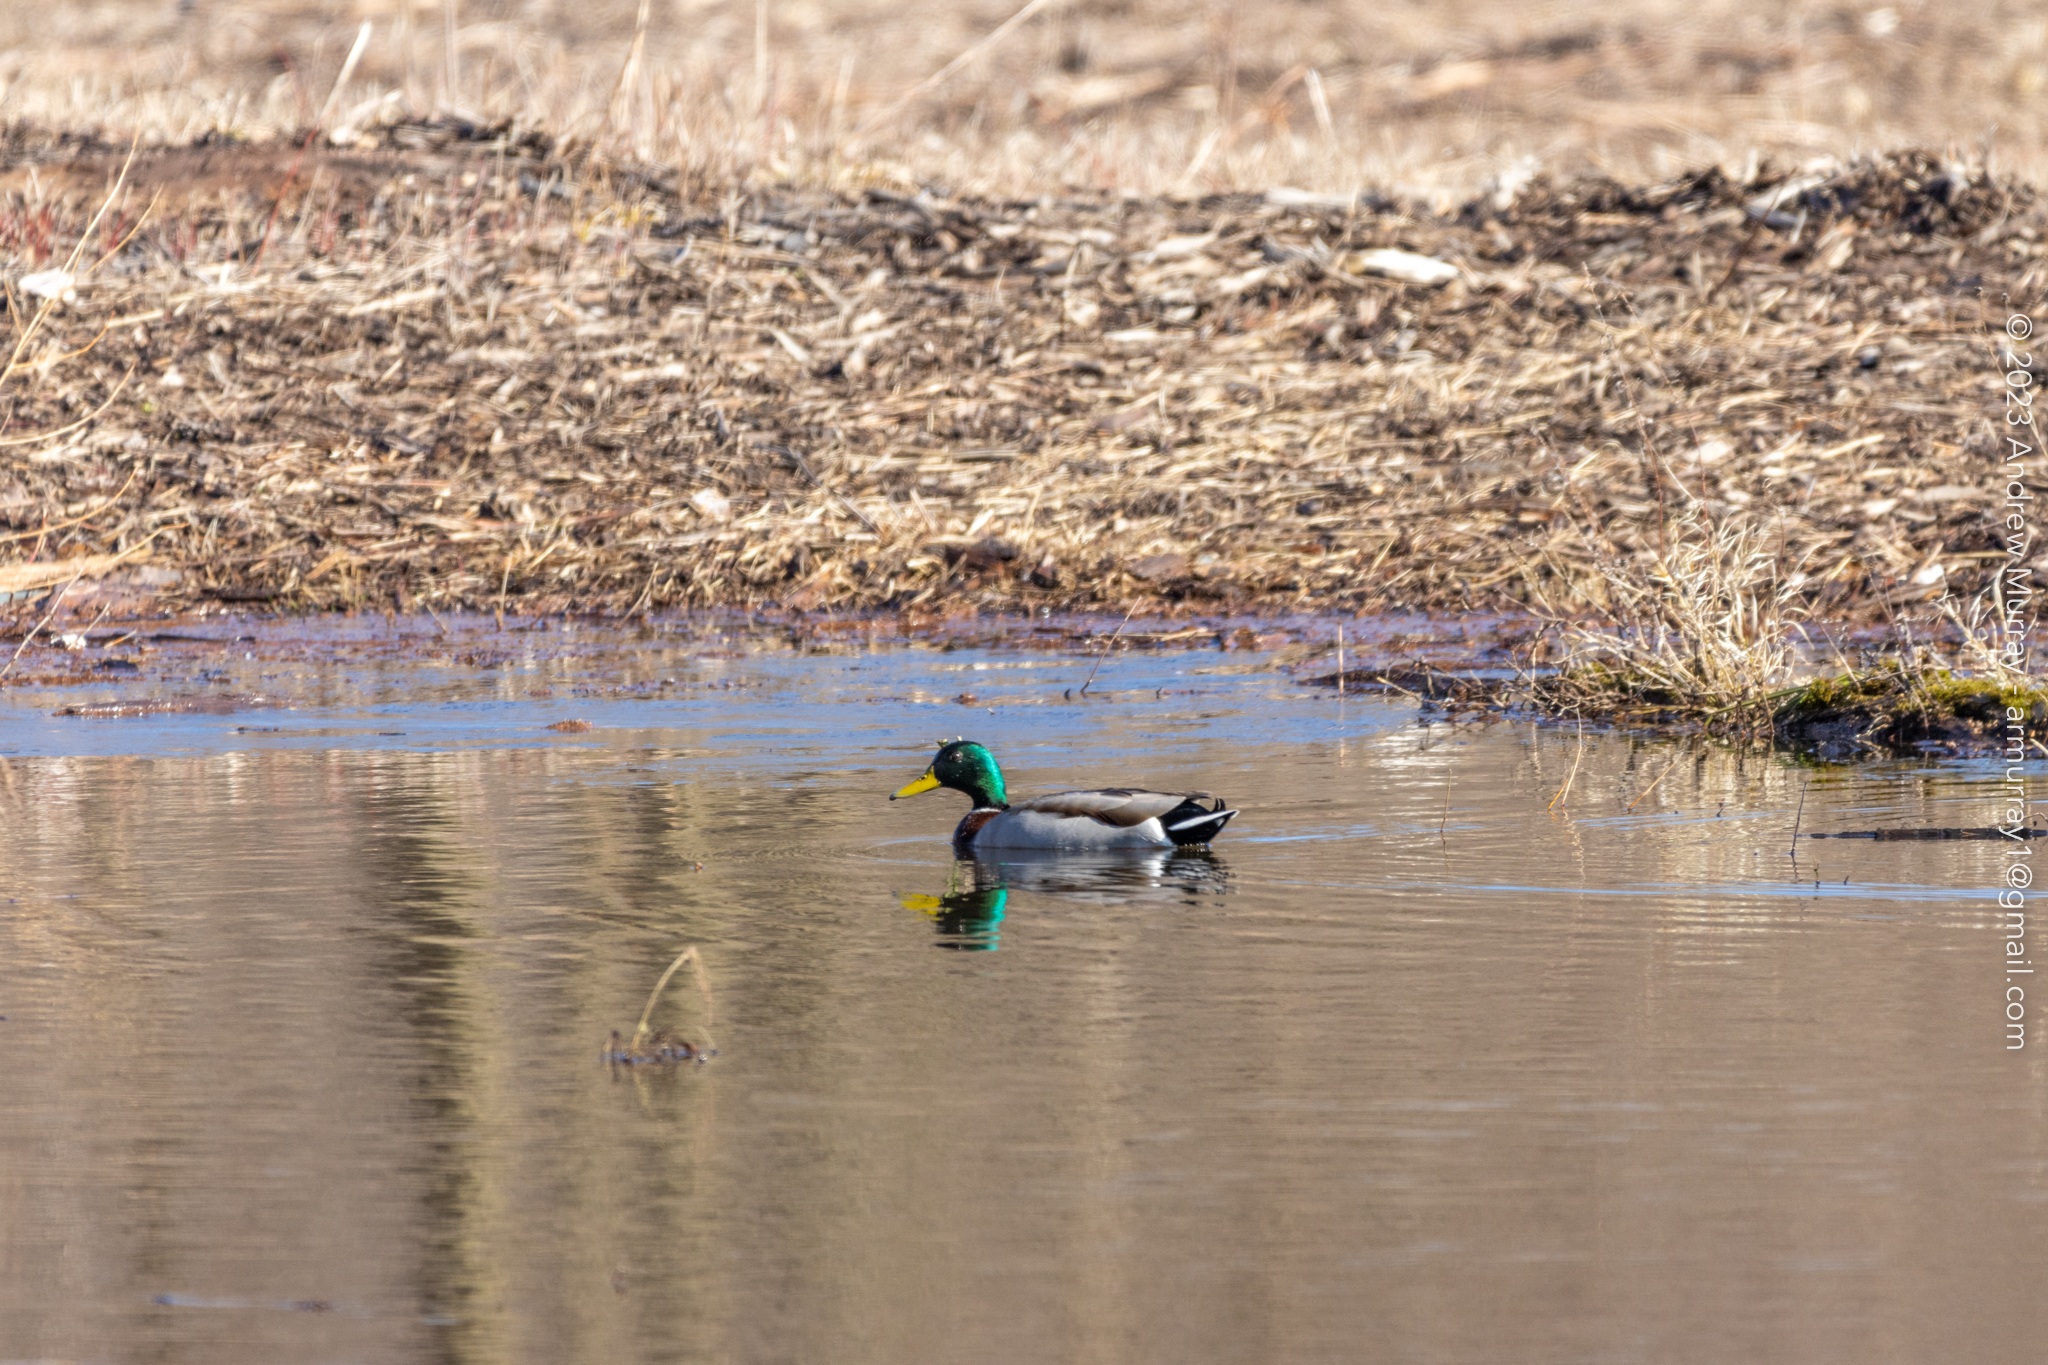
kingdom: Animalia
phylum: Chordata
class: Aves
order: Anseriformes
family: Anatidae
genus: Anas
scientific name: Anas platyrhynchos
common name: Mallard
